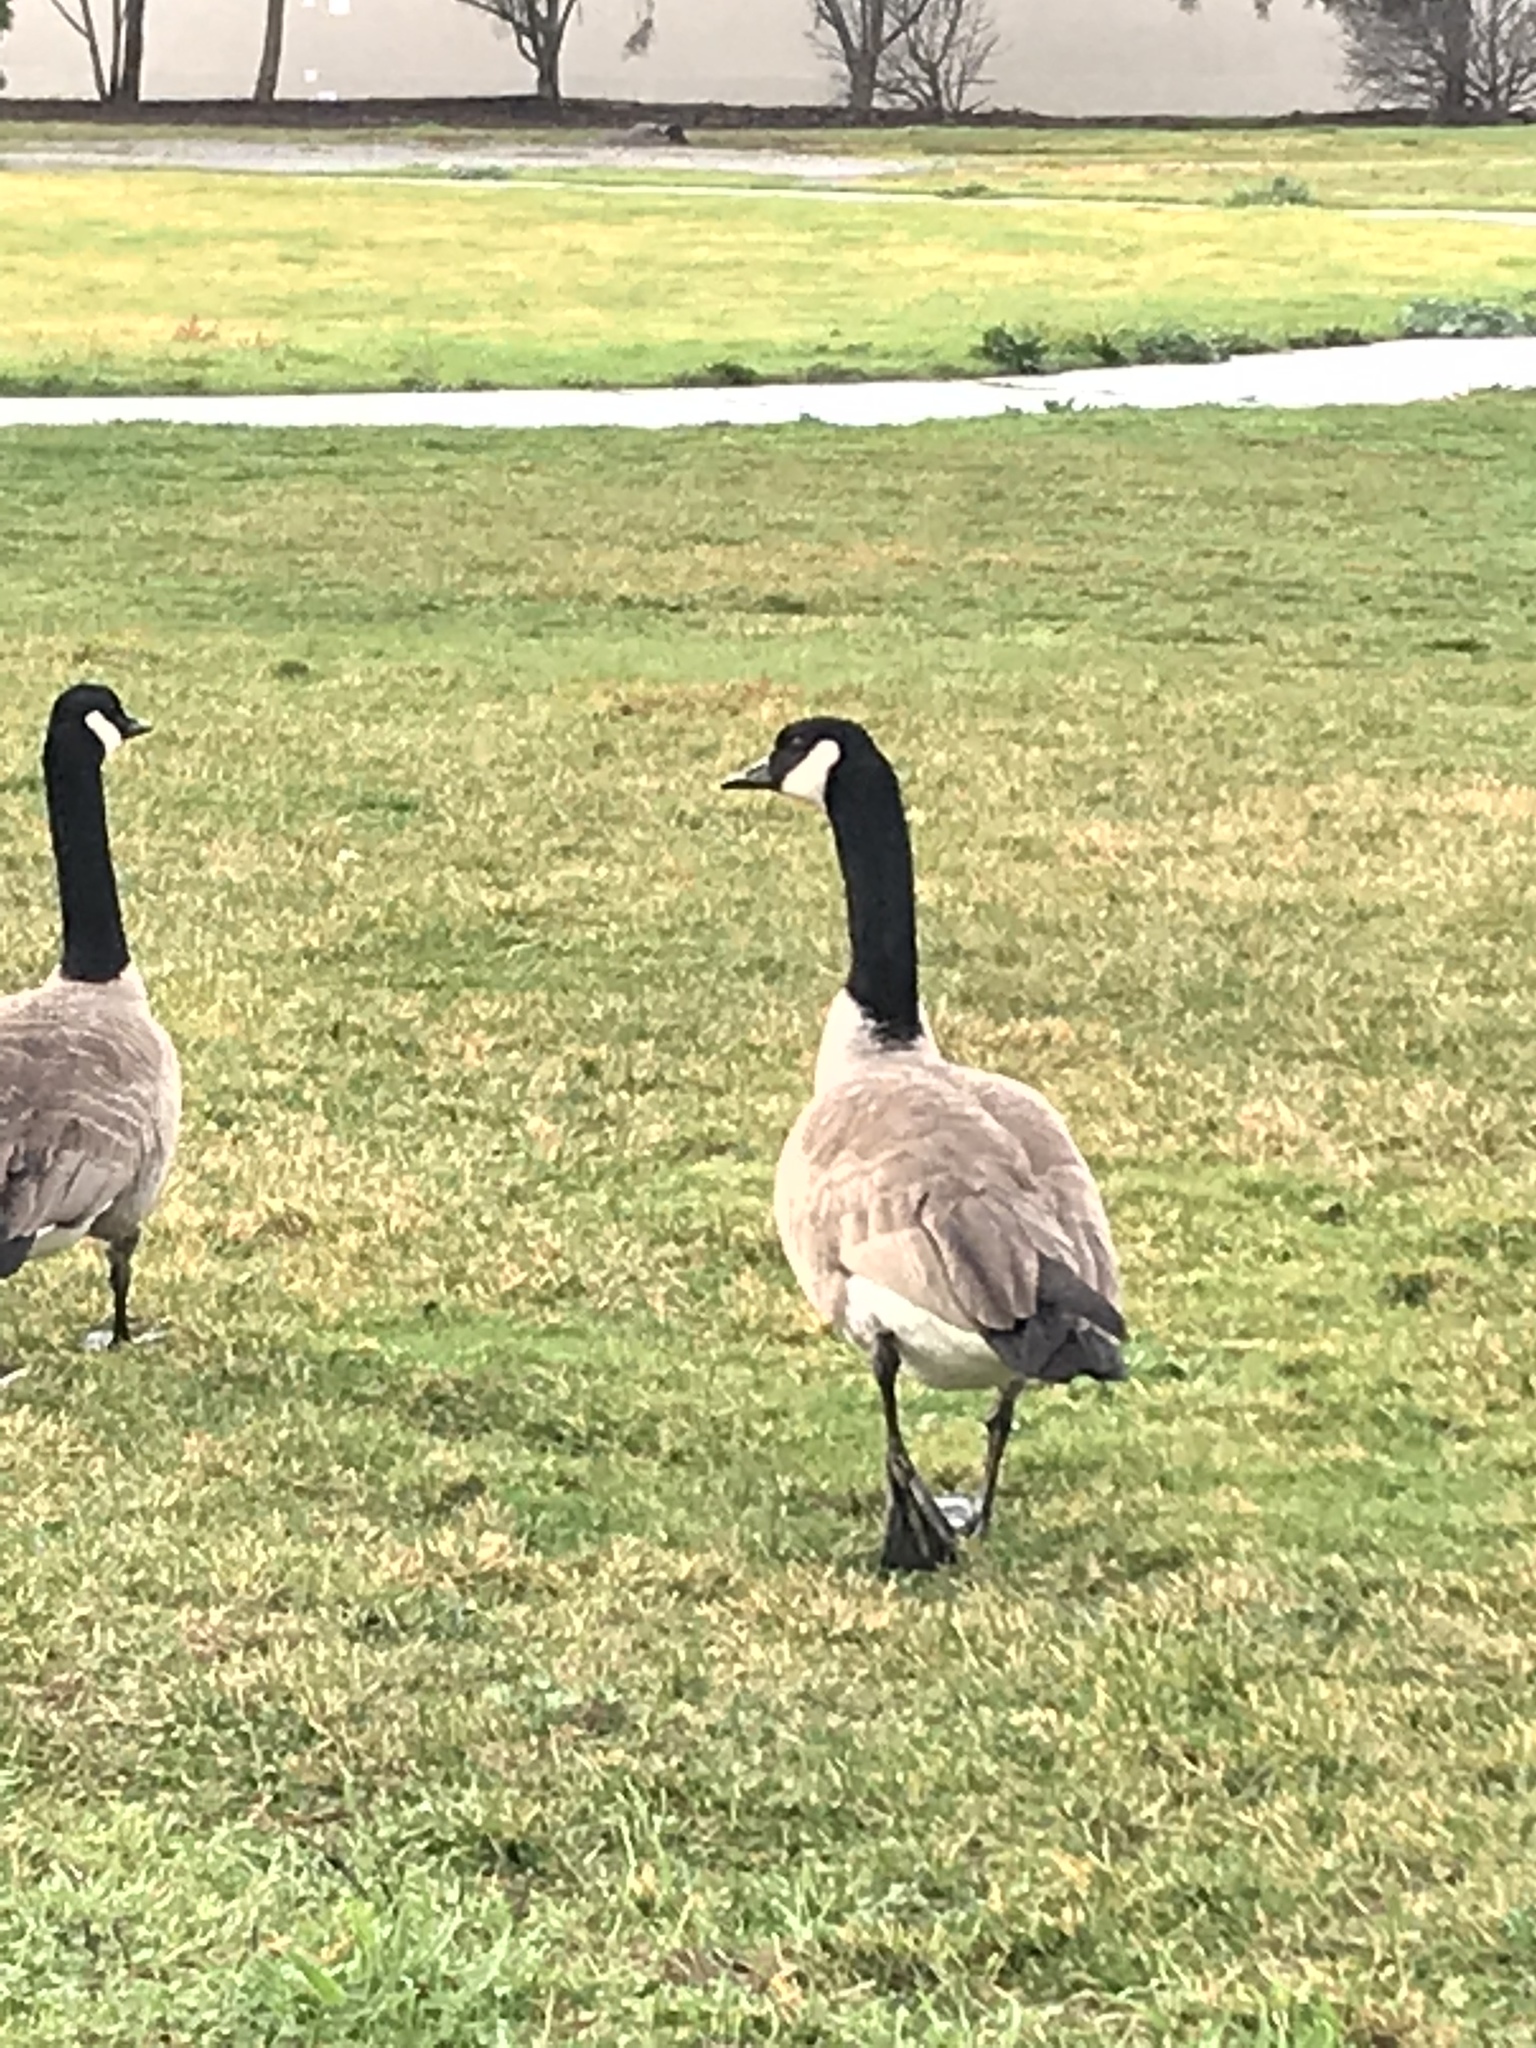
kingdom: Animalia
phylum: Chordata
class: Aves
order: Anseriformes
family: Anatidae
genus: Branta
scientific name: Branta canadensis
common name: Canada goose
